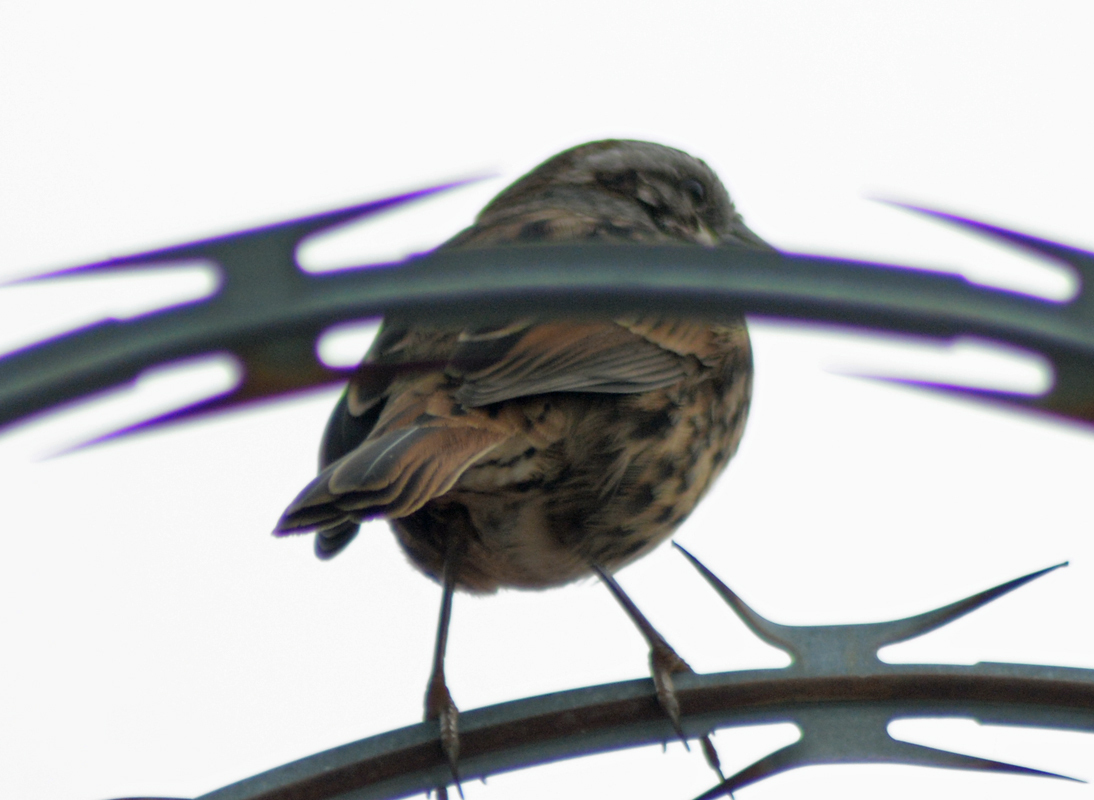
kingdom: Animalia
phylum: Chordata
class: Aves
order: Passeriformes
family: Passerellidae
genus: Melospiza
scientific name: Melospiza melodia
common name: Song sparrow
